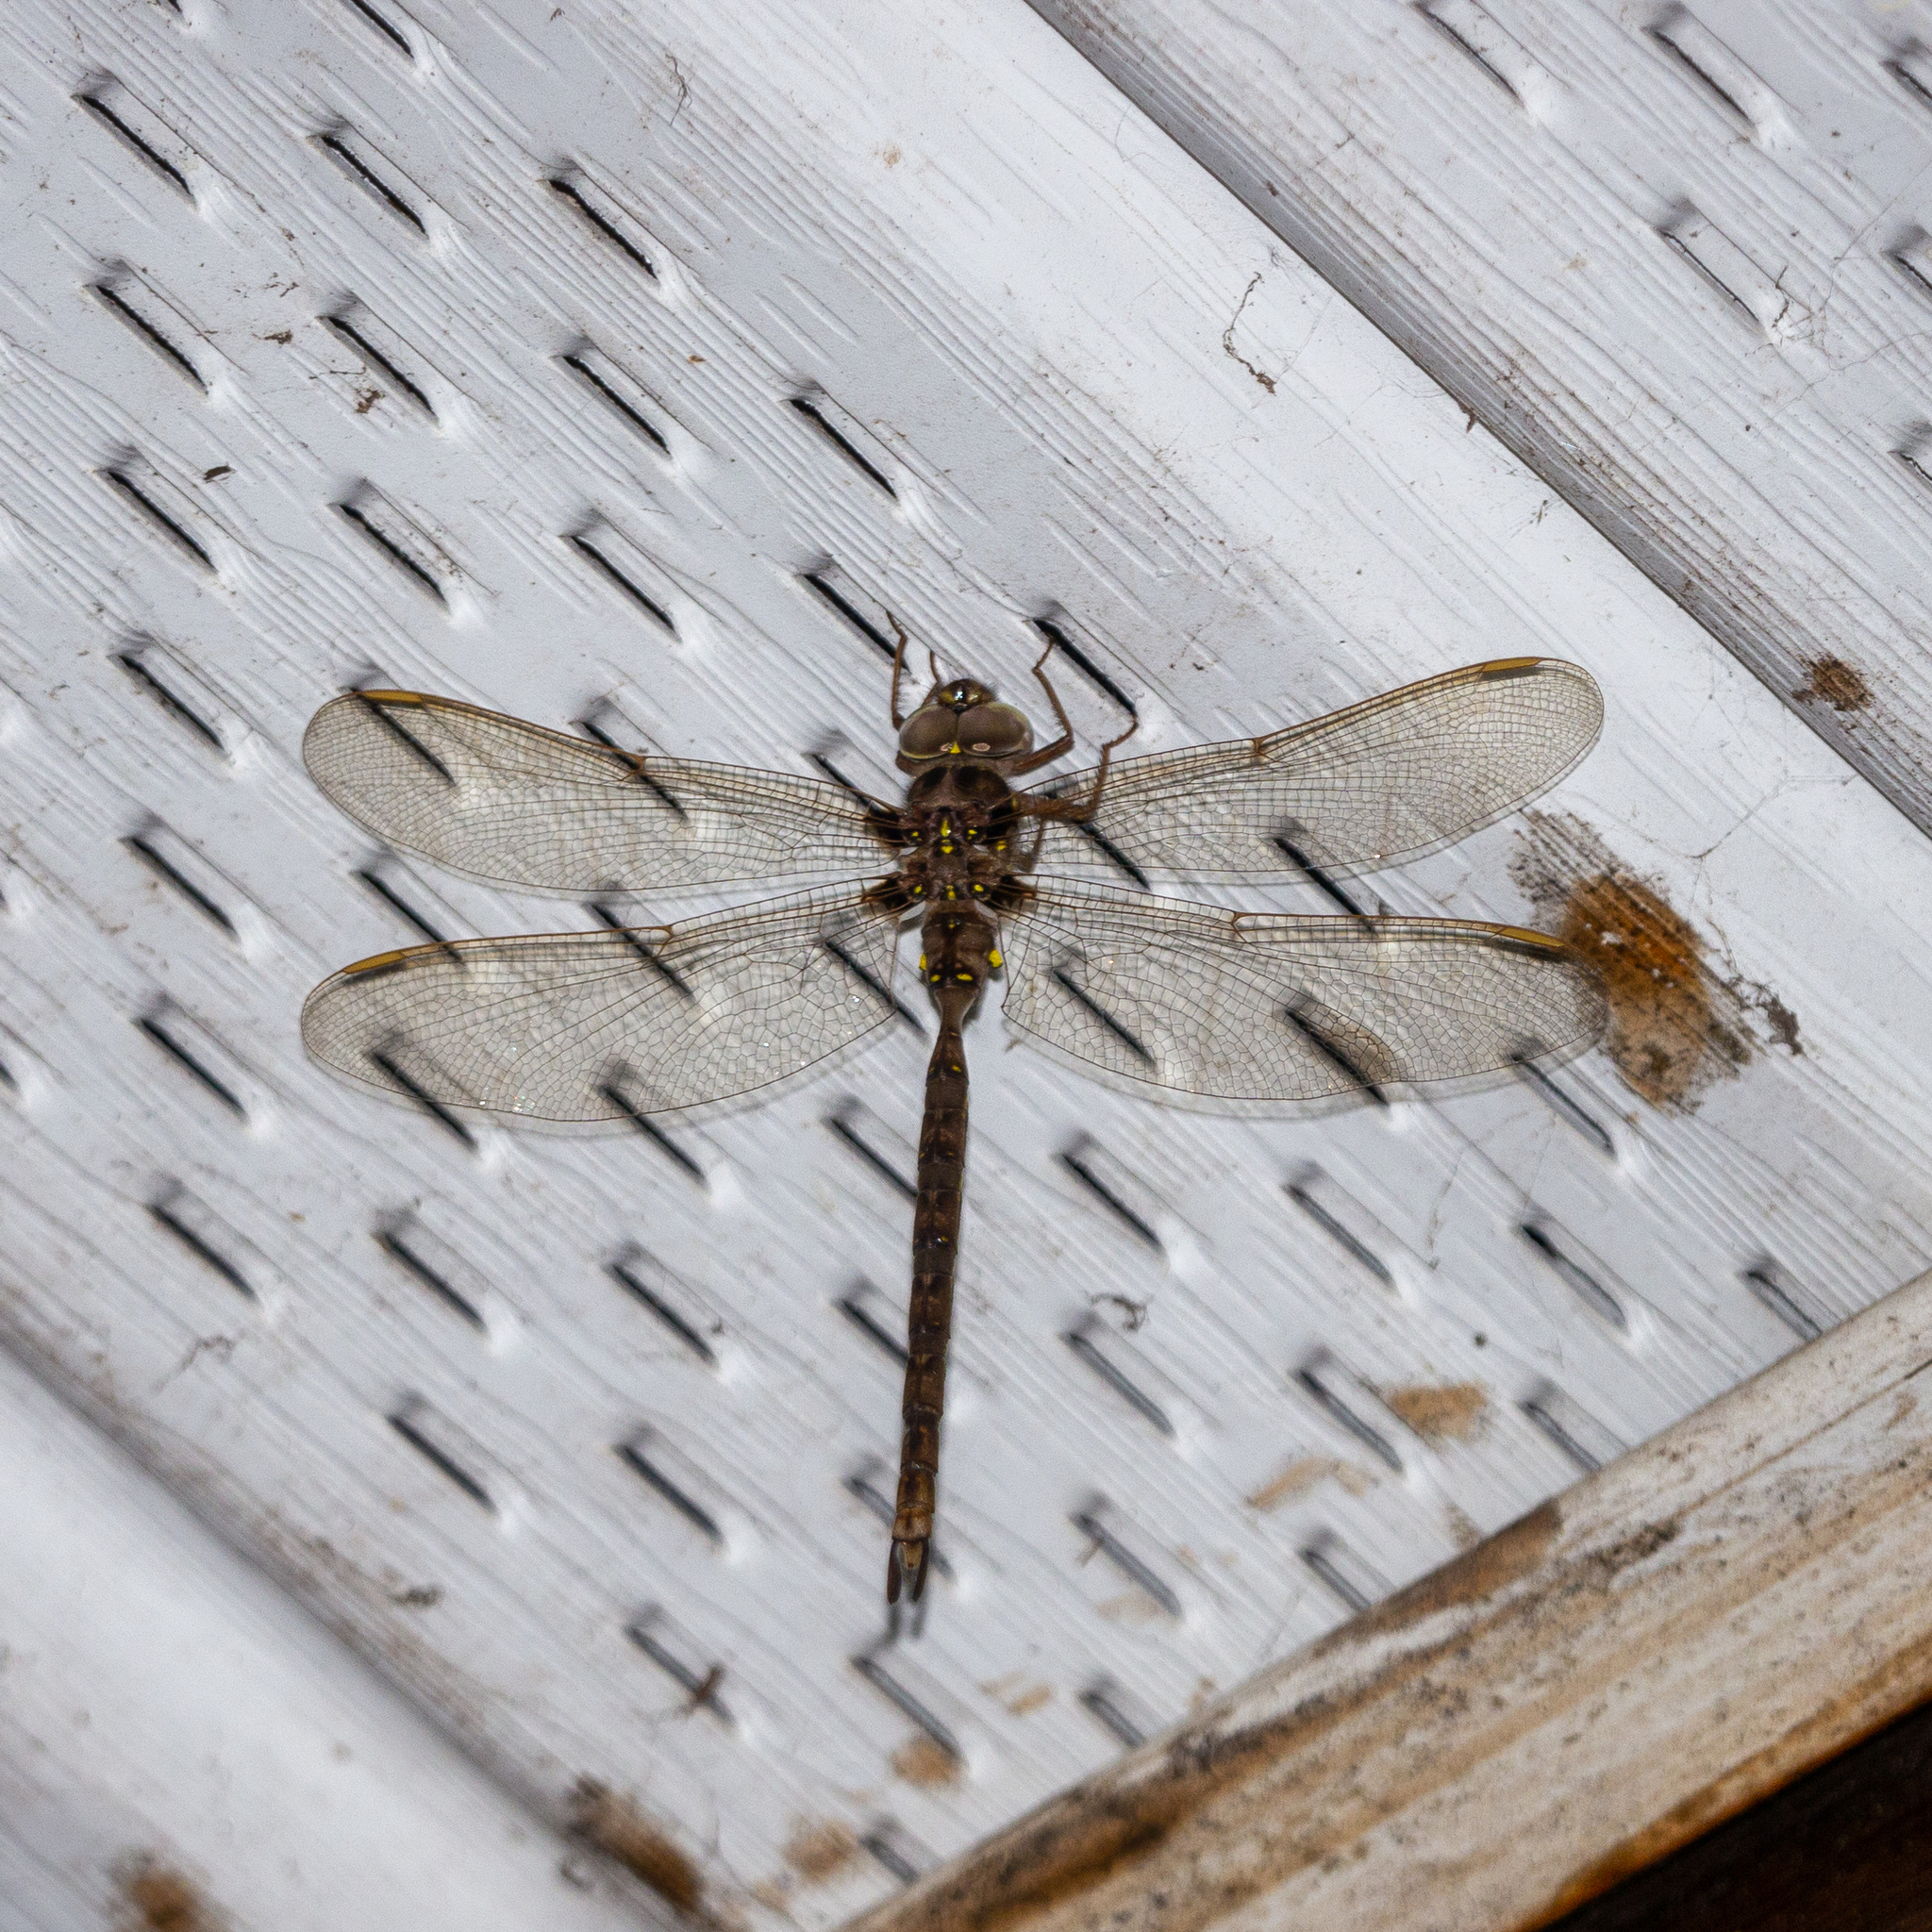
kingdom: Animalia
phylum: Arthropoda
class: Insecta
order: Odonata
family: Aeshnidae
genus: Boyeria
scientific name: Boyeria vinosa
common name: Fawn darner
